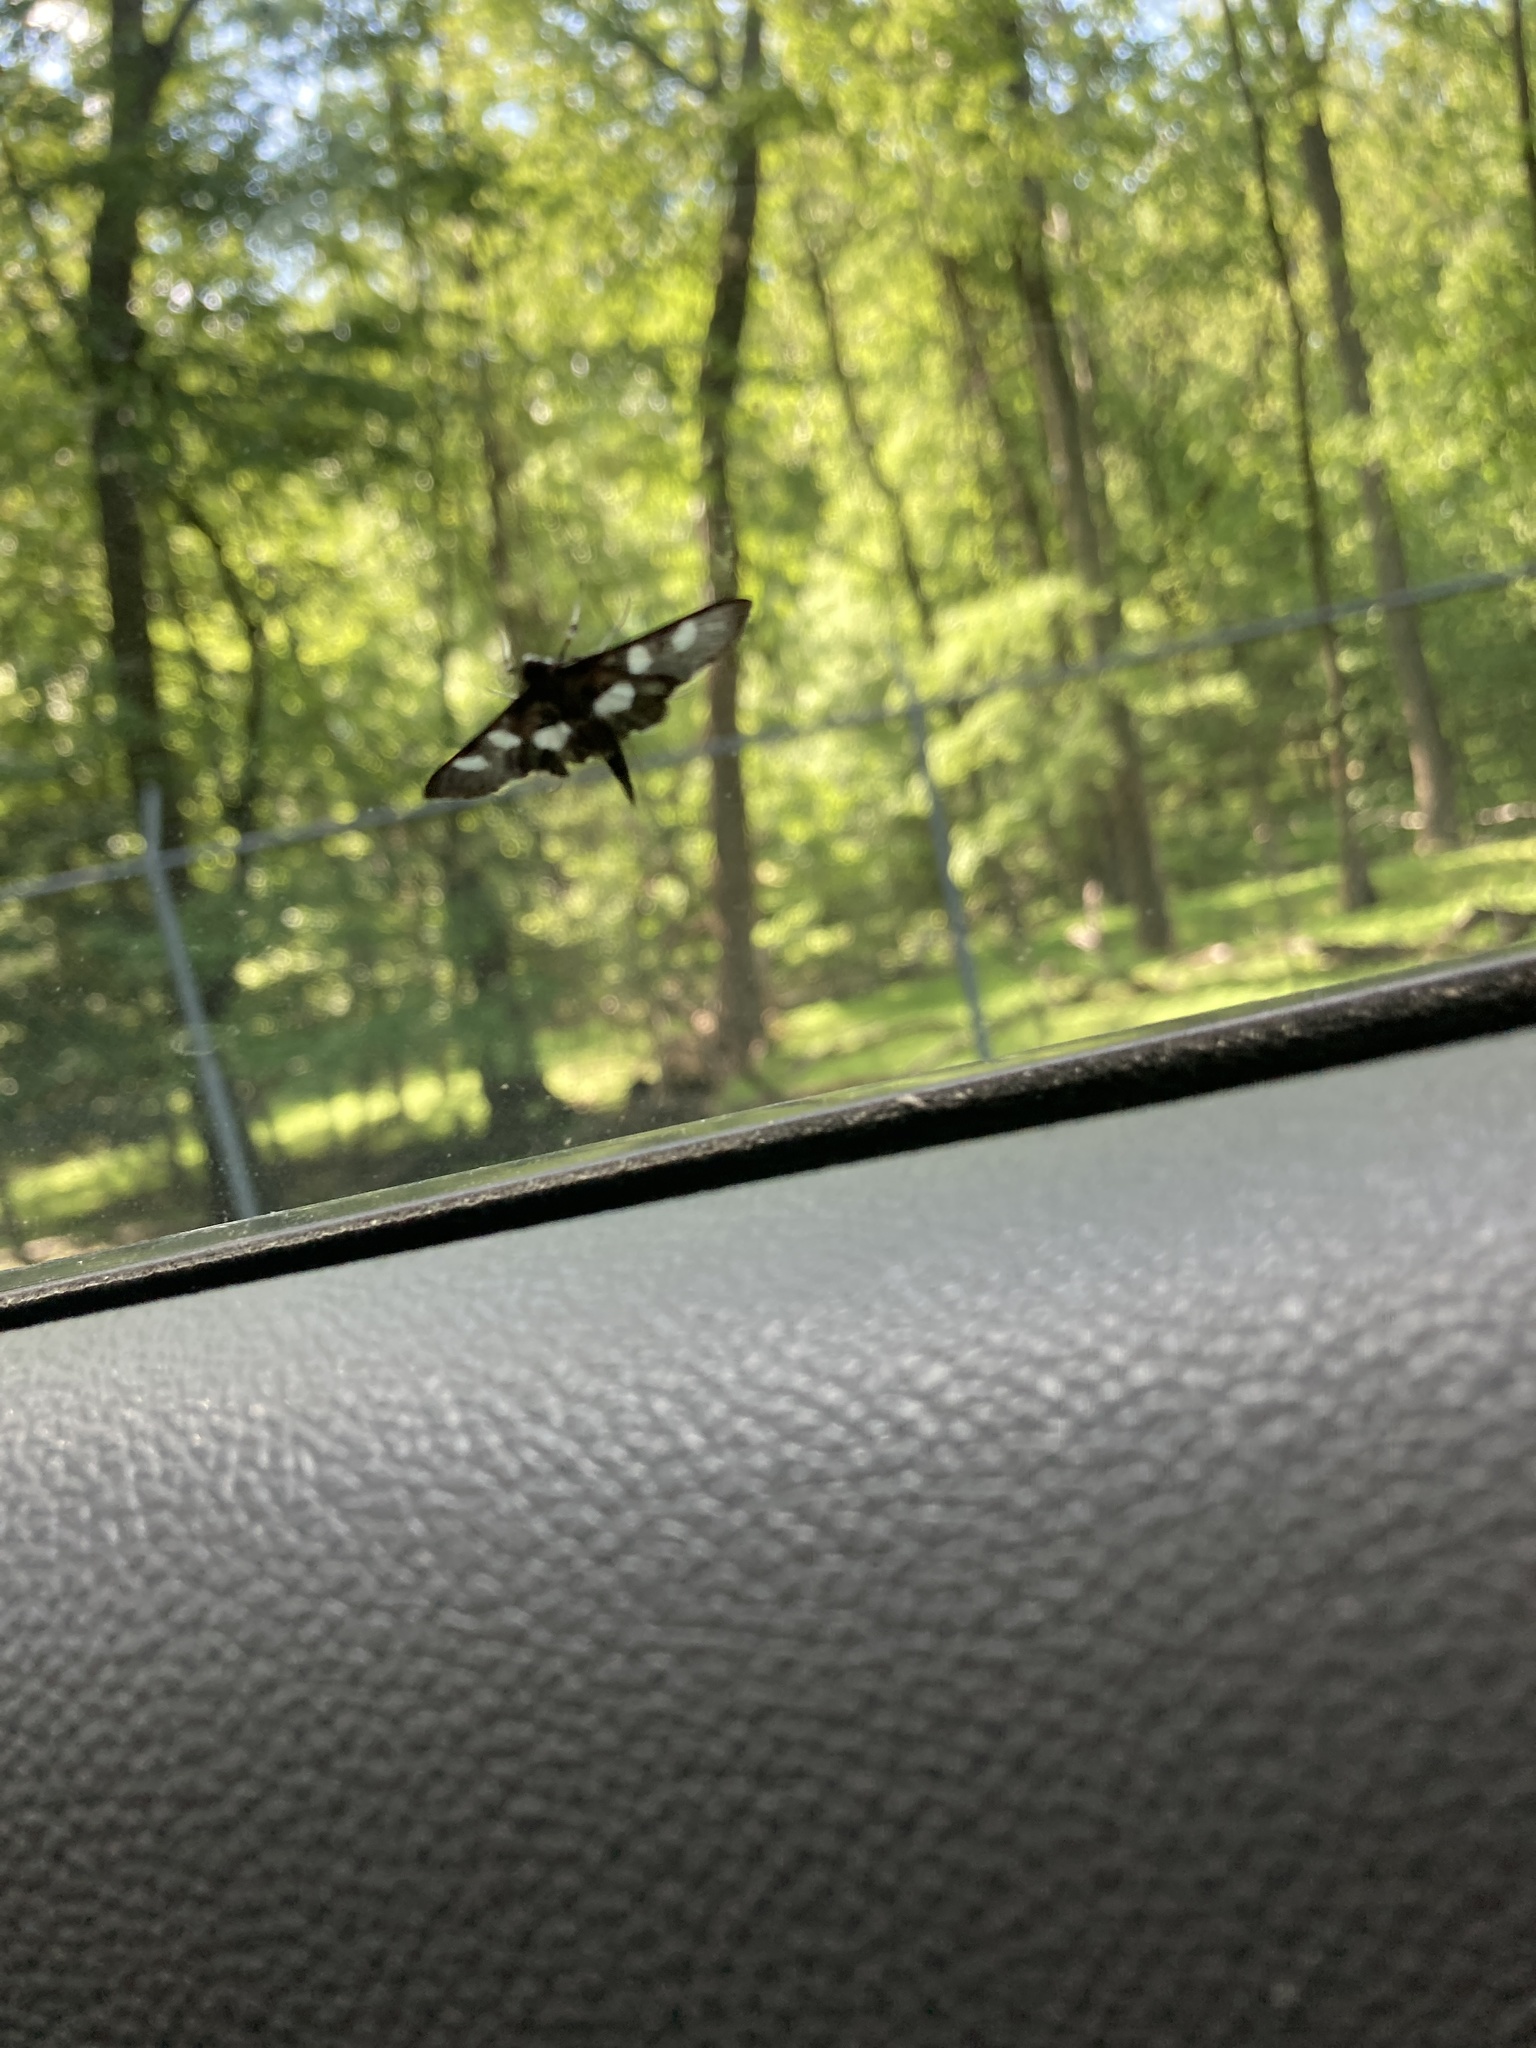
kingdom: Animalia
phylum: Arthropoda
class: Insecta
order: Lepidoptera
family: Crambidae
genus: Desmia
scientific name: Desmia
